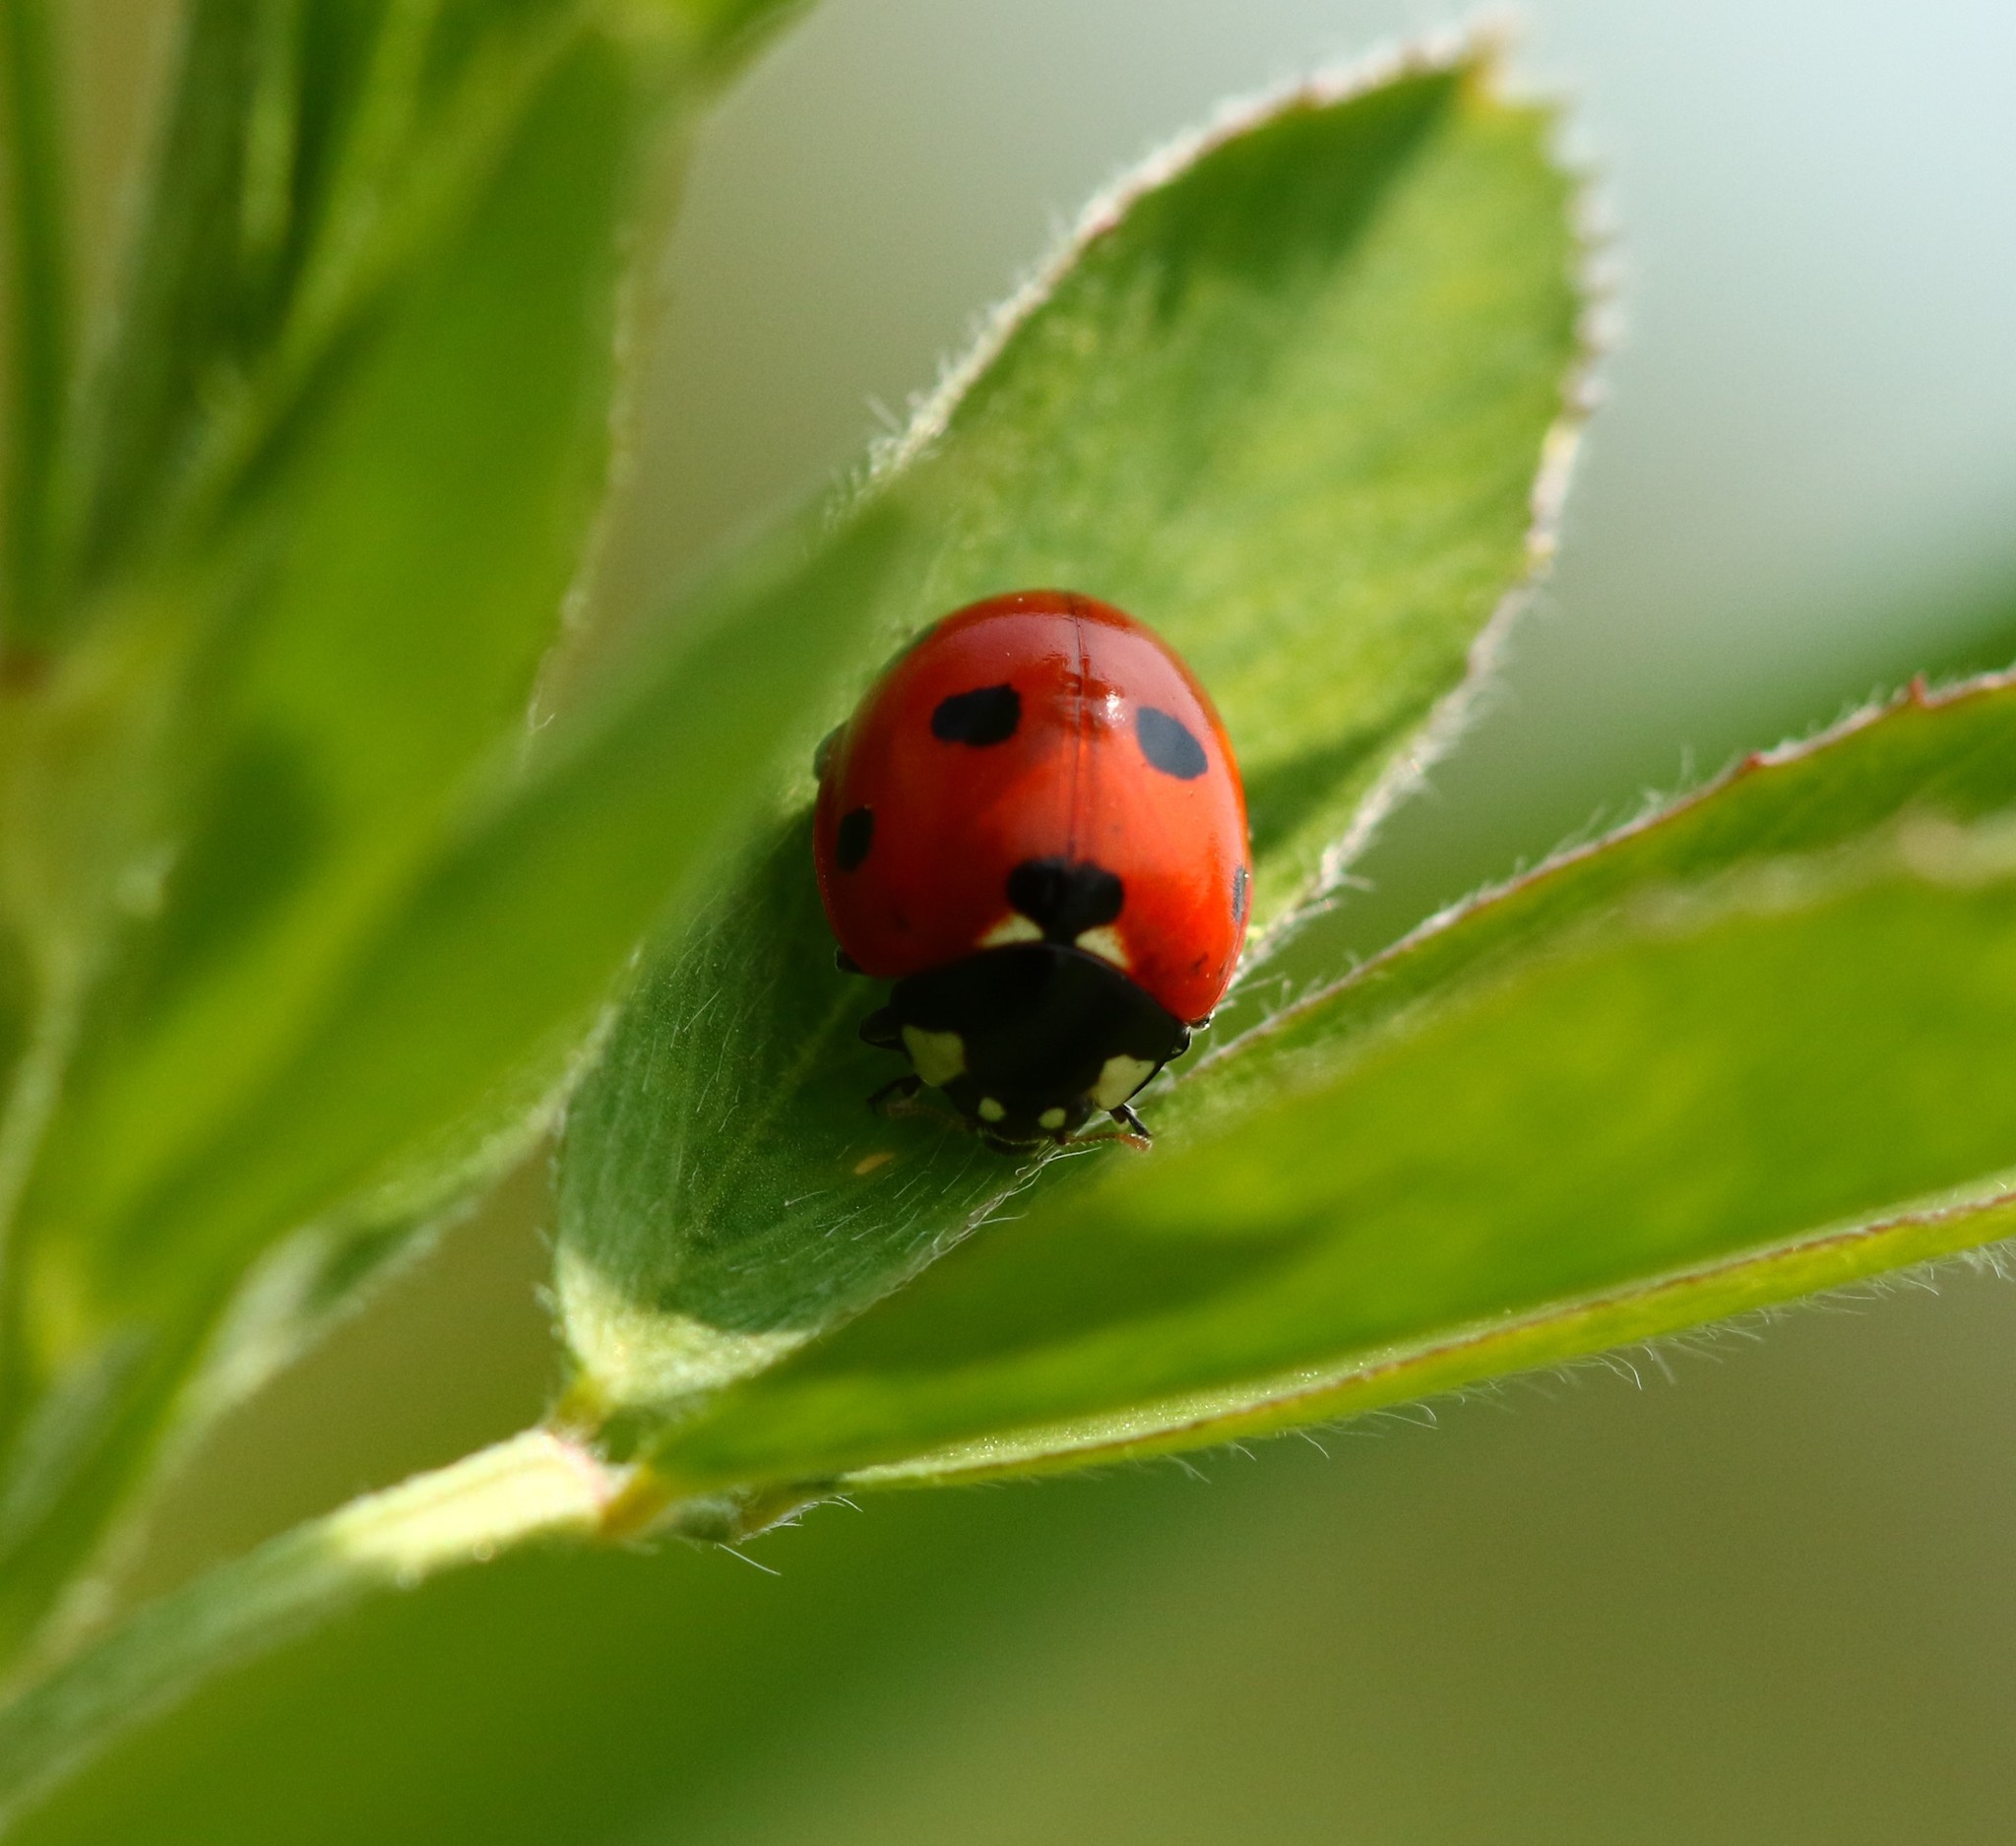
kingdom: Animalia
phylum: Arthropoda
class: Insecta
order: Coleoptera
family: Coccinellidae
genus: Coccinella
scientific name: Coccinella septempunctata
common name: Sevenspotted lady beetle
